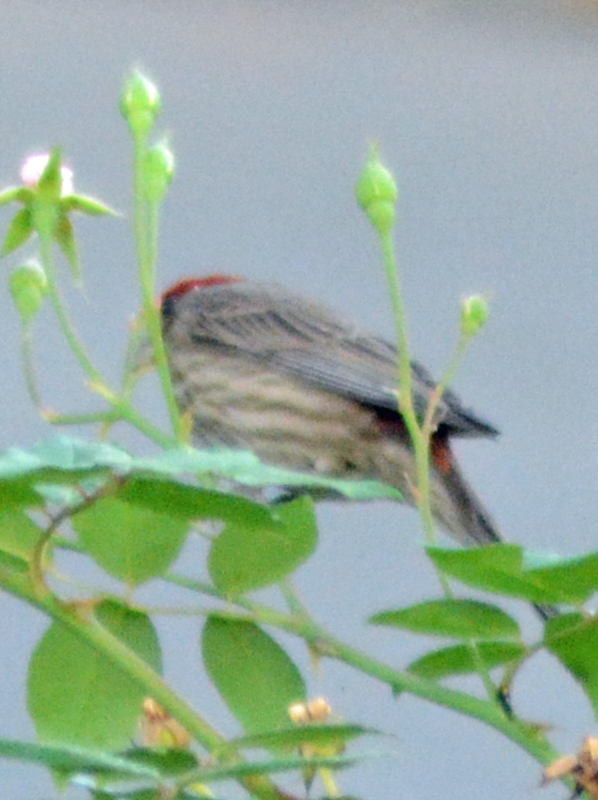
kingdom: Animalia
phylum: Chordata
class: Aves
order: Passeriformes
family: Fringillidae
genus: Haemorhous
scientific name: Haemorhous mexicanus
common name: House finch
